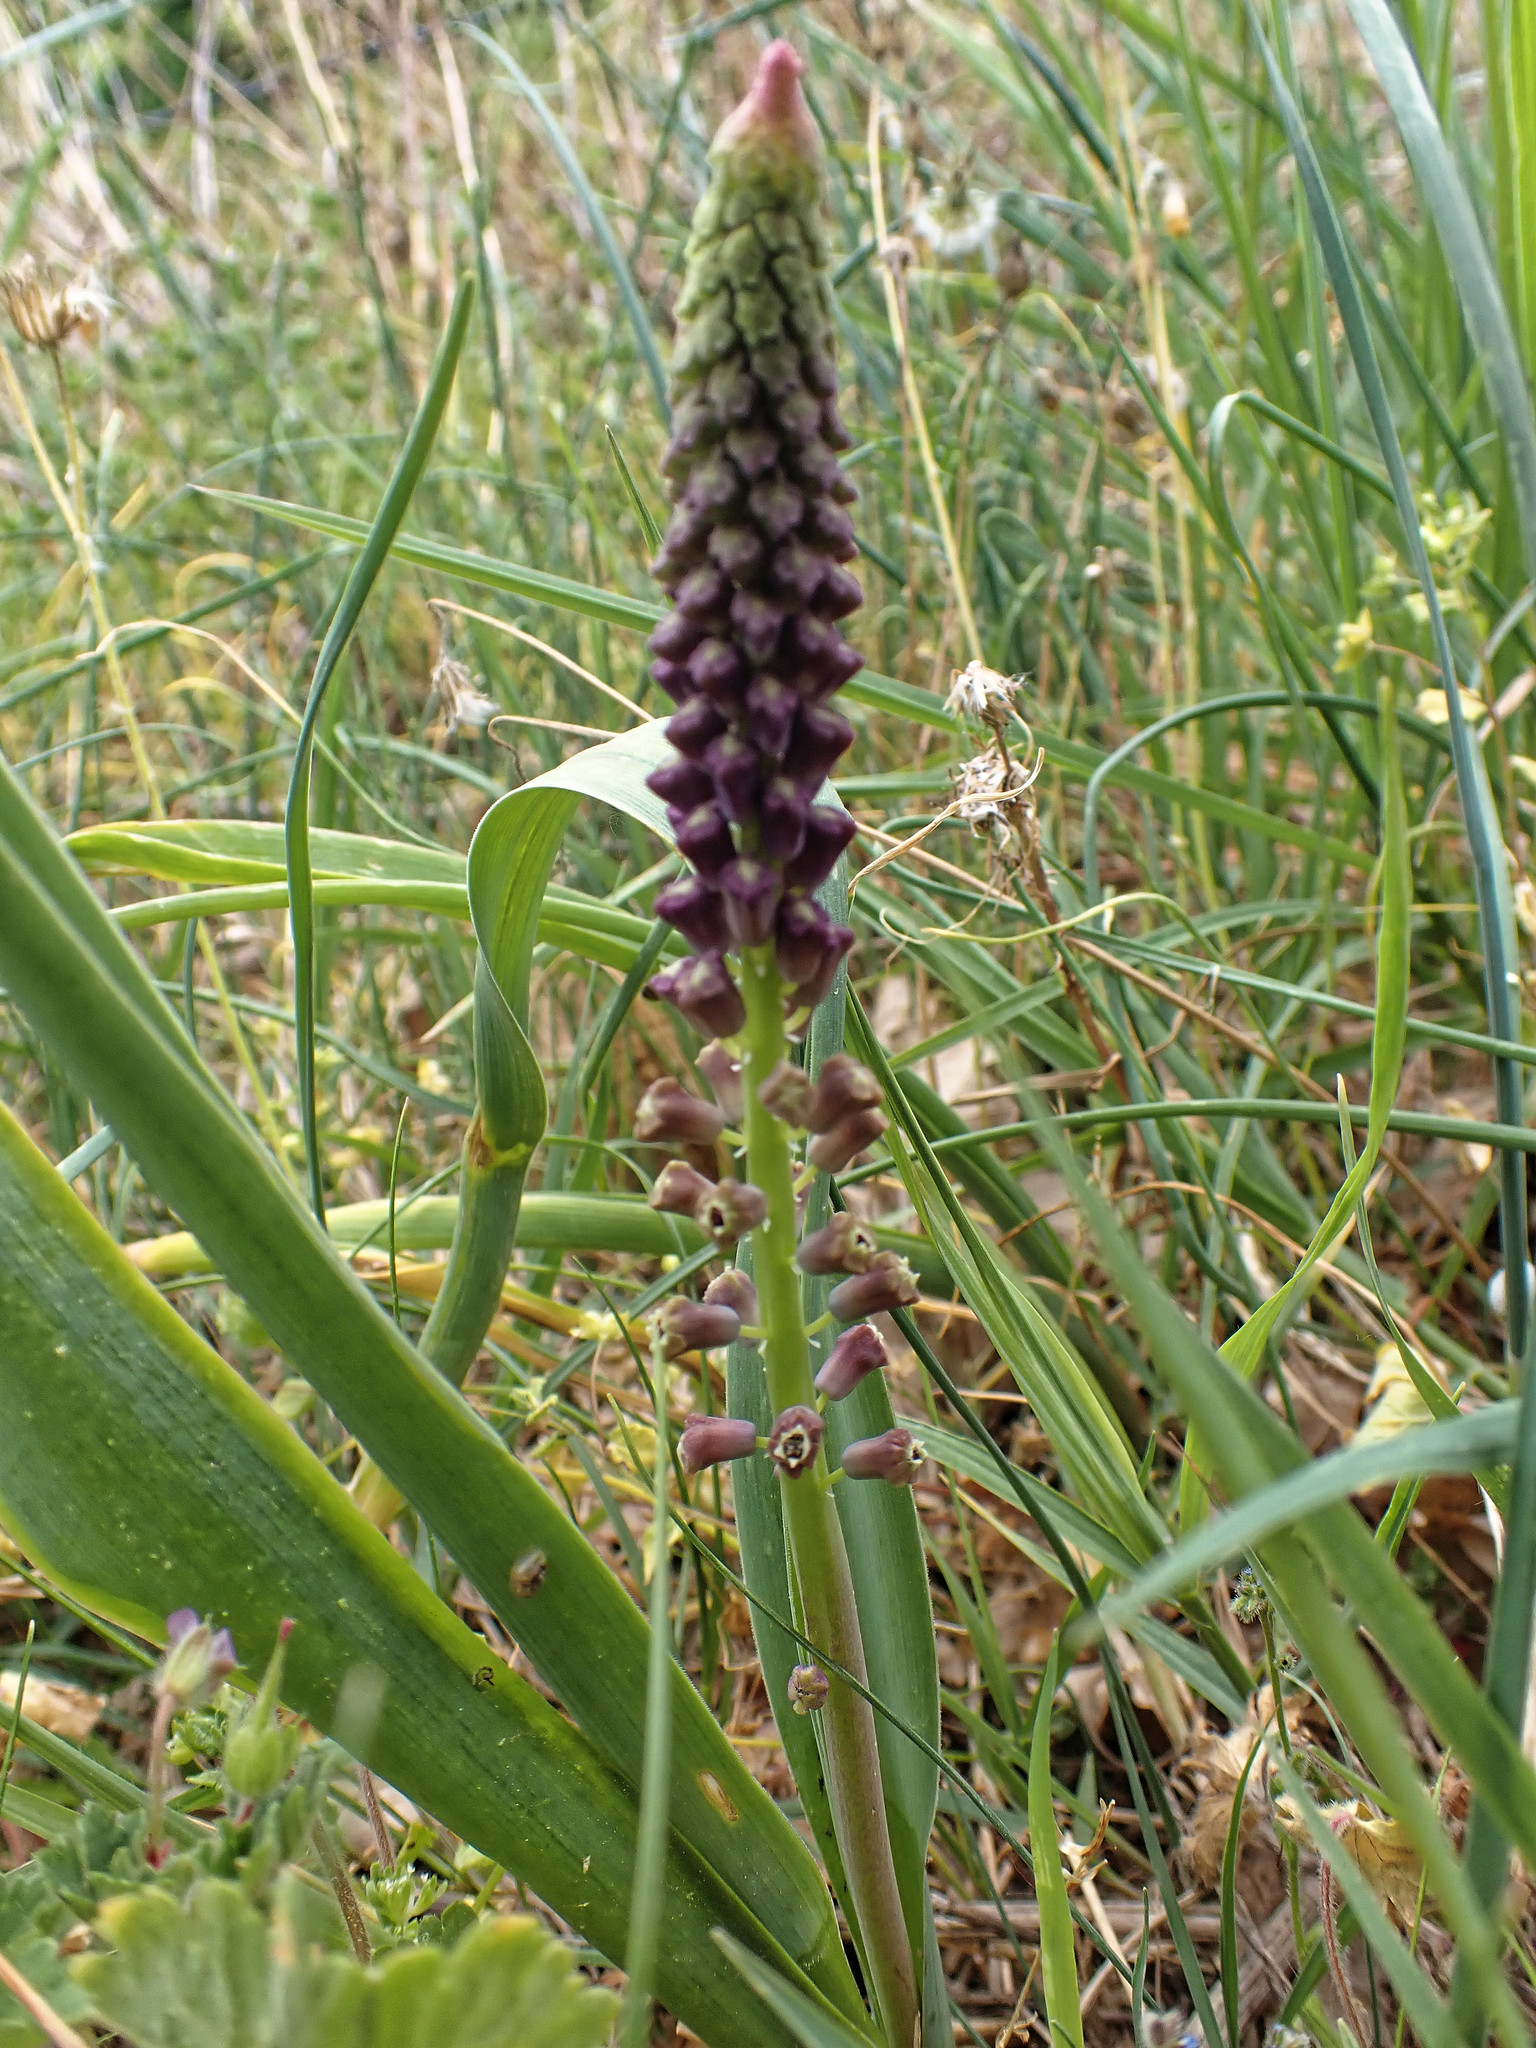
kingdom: Plantae
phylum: Tracheophyta
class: Liliopsida
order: Asparagales
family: Asparagaceae
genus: Muscari
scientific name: Muscari comosum
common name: Tassel hyacinth
